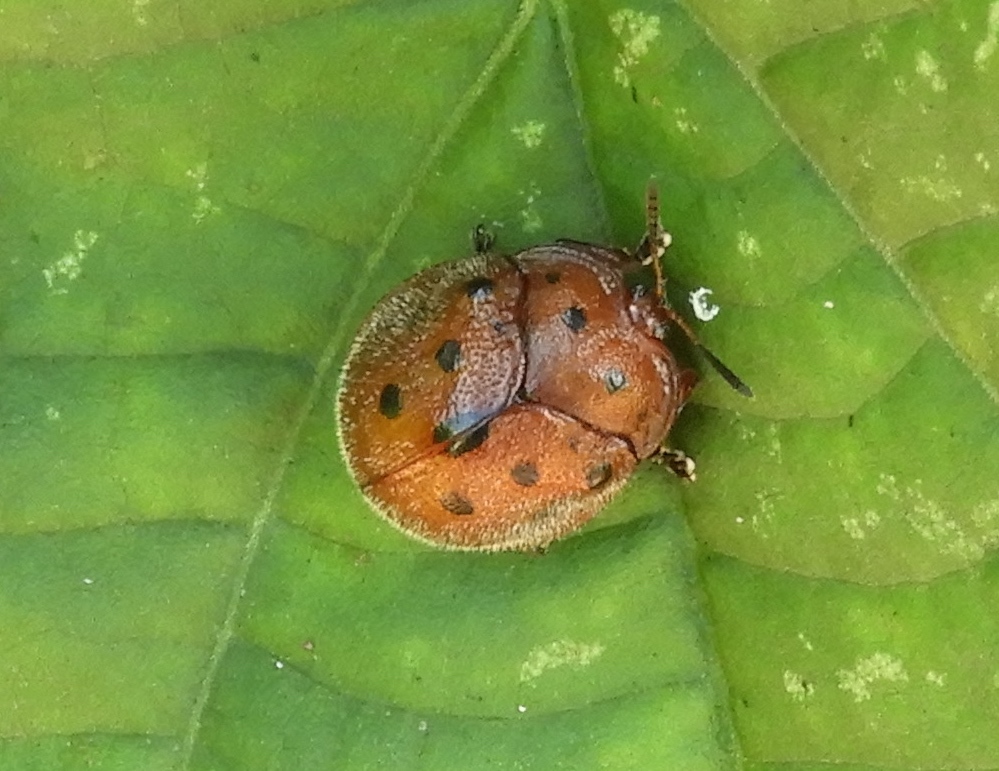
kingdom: Animalia
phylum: Arthropoda
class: Insecta
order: Coleoptera
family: Chrysomelidae
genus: Chelymorpha
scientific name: Chelymorpha
